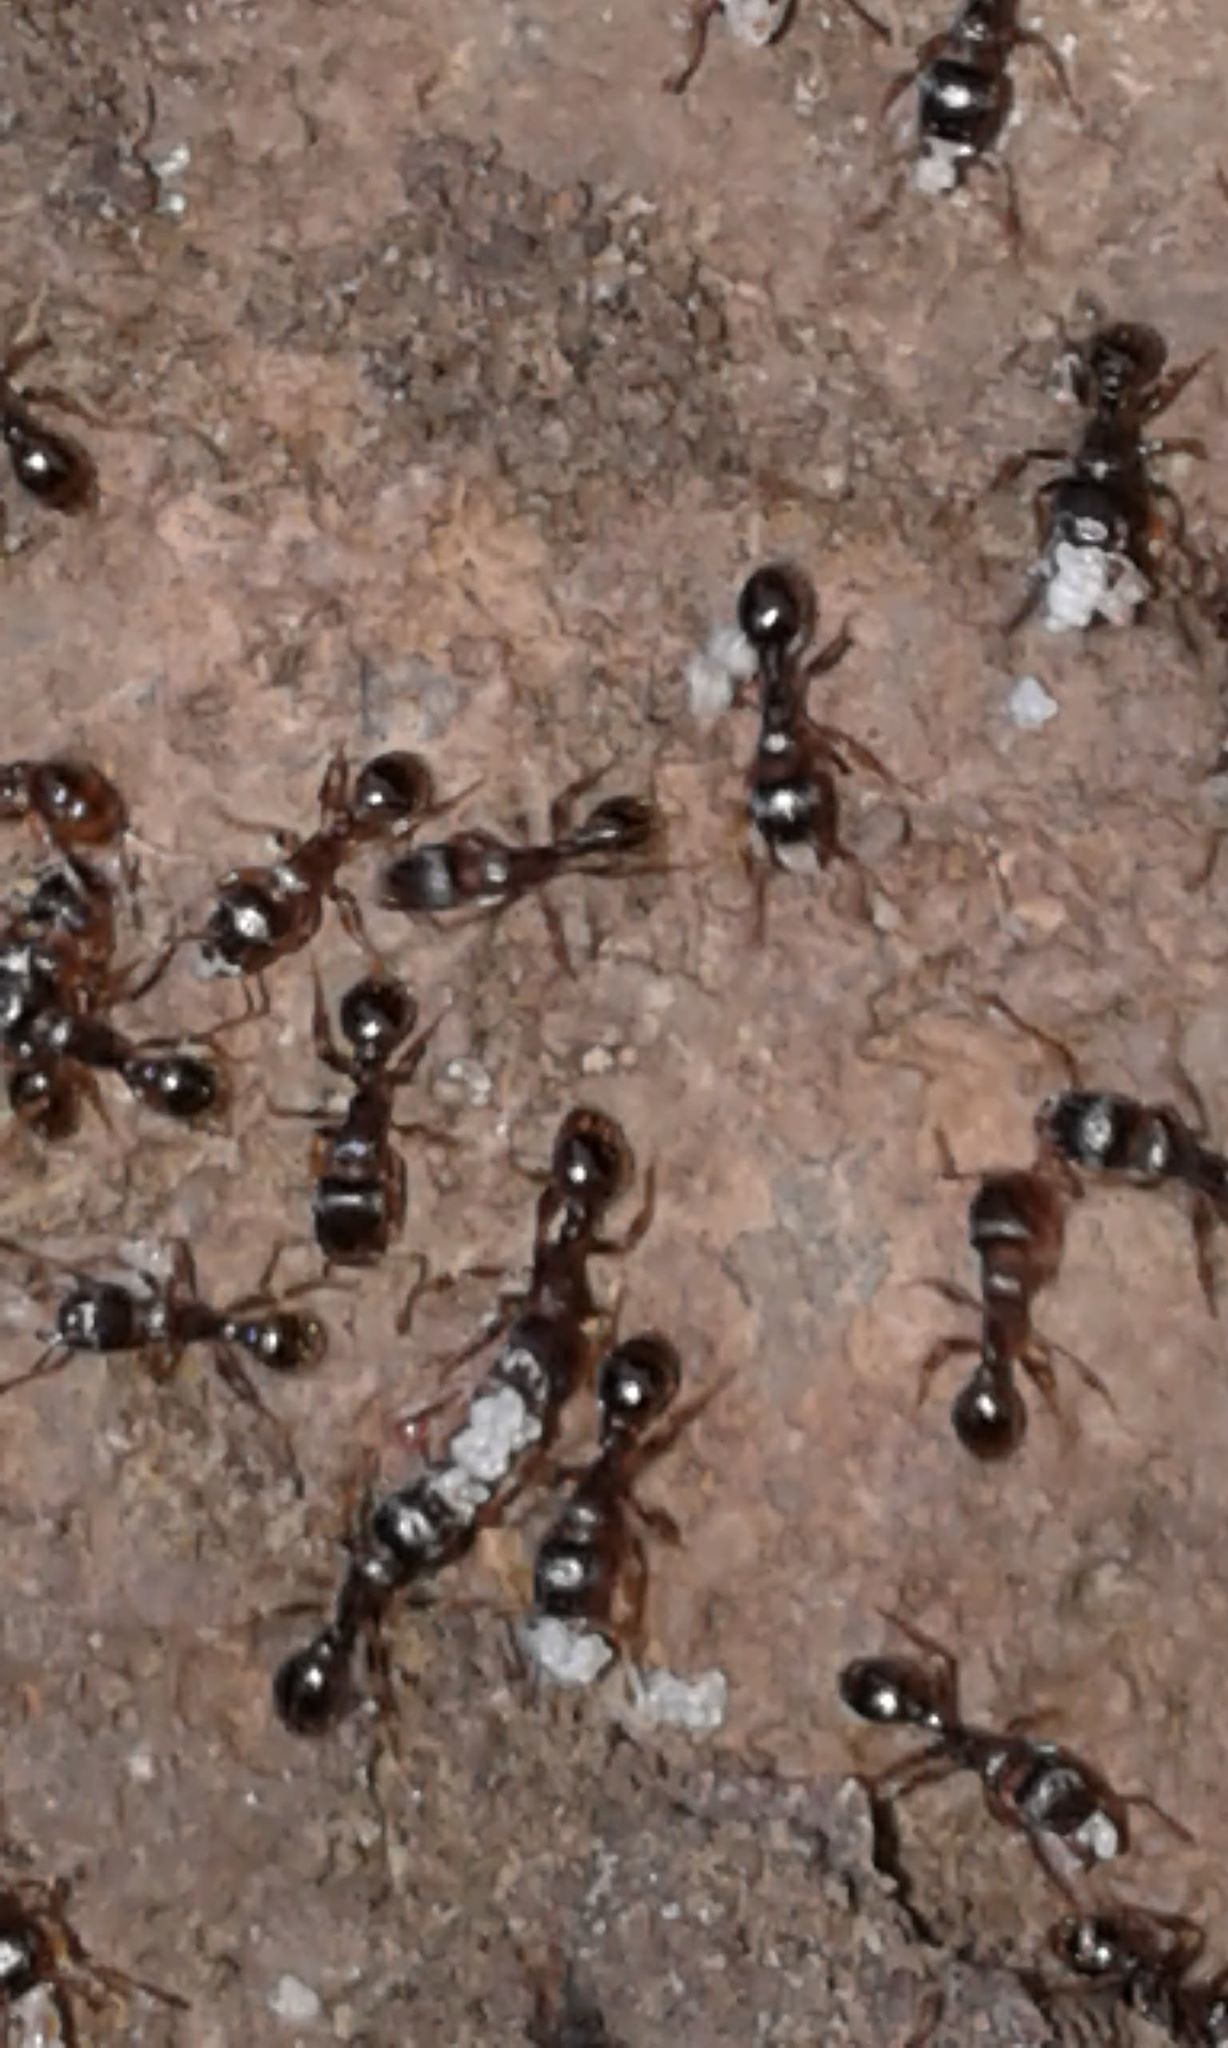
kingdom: Animalia
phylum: Arthropoda
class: Insecta
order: Hymenoptera
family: Formicidae
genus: Tetramorium
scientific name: Tetramorium immigrans
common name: Pavement ant
